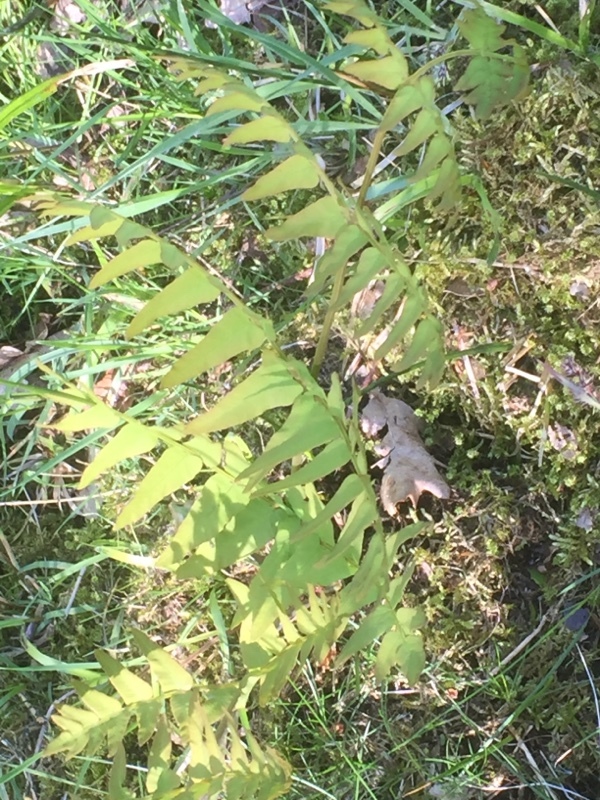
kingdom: Plantae
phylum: Tracheophyta
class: Polypodiopsida
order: Osmundales
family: Osmundaceae
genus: Osmunda
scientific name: Osmunda regalis
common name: Royal fern
